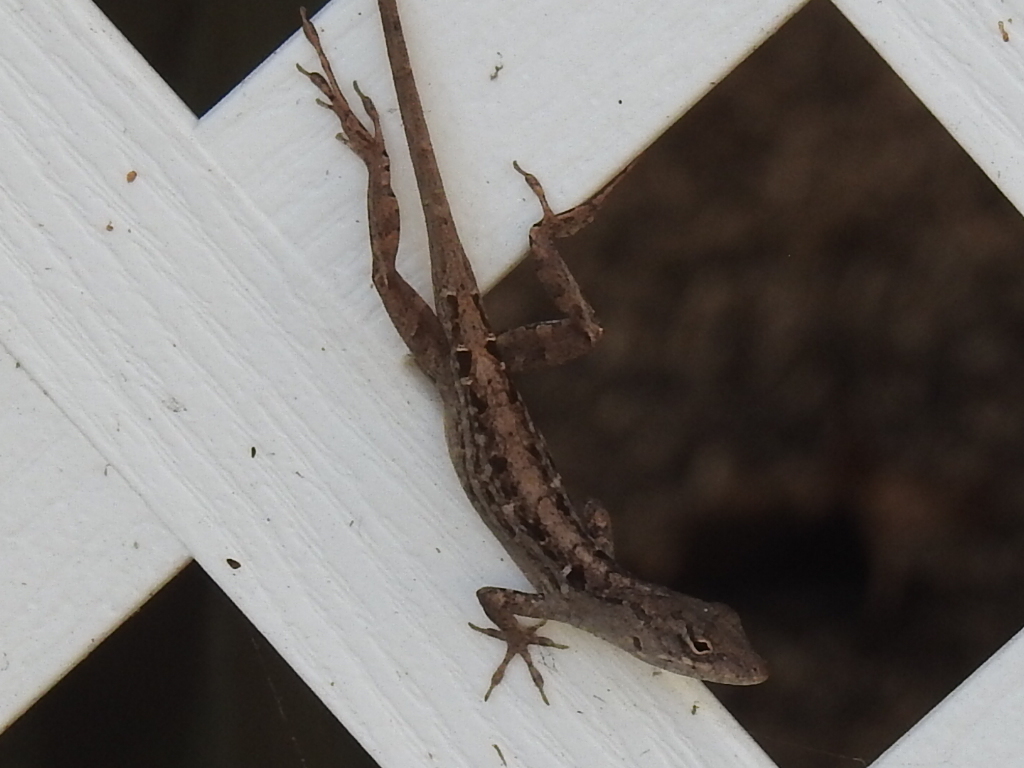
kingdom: Animalia
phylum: Chordata
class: Squamata
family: Dactyloidae
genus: Anolis
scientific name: Anolis sagrei
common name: Brown anole
